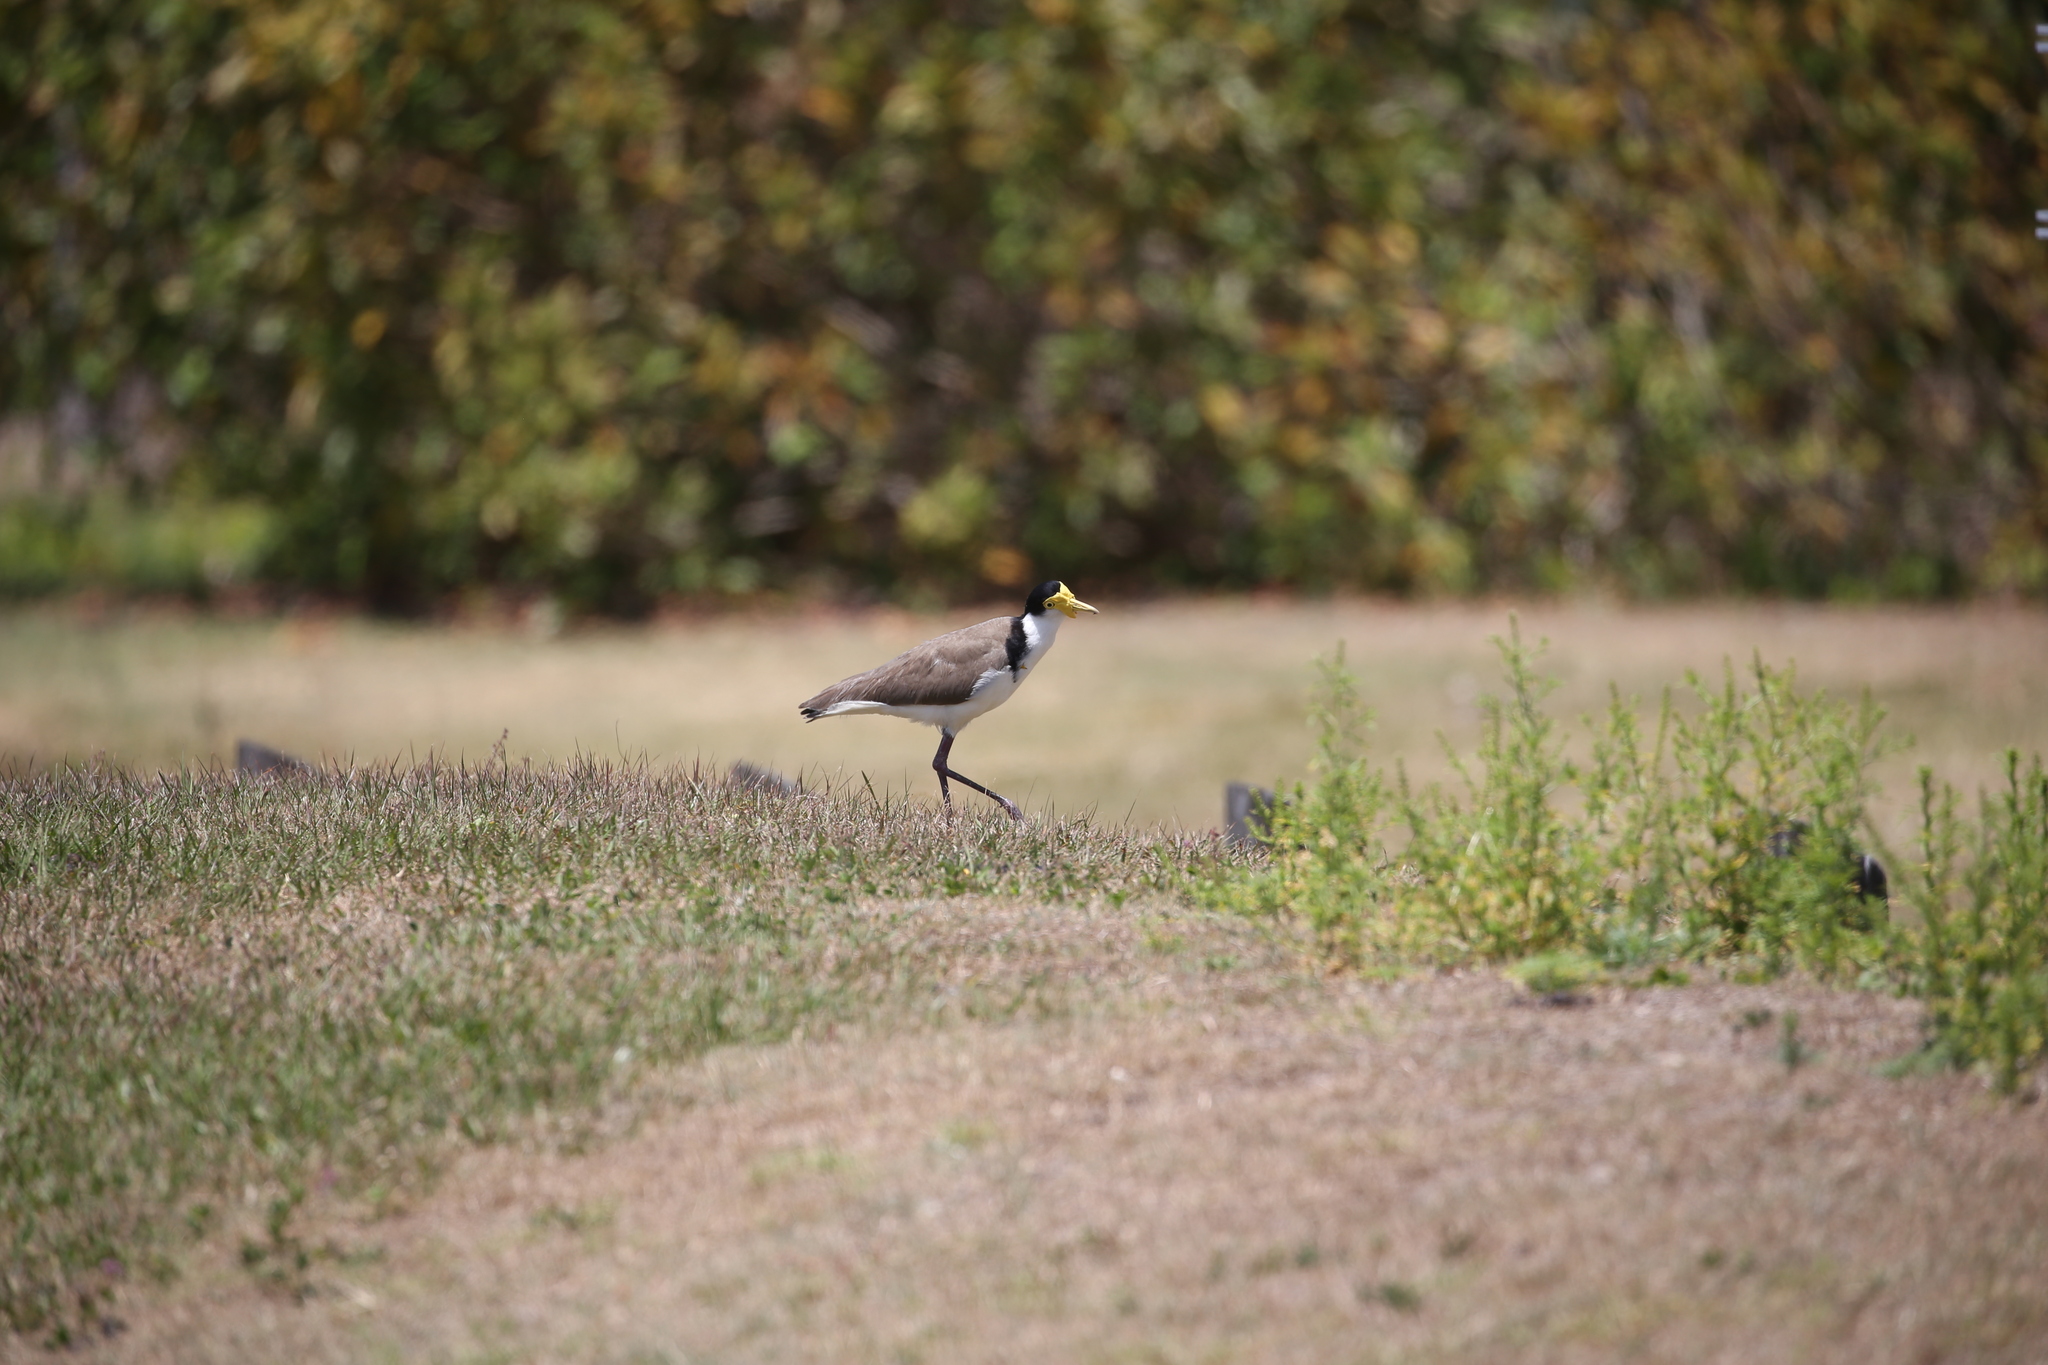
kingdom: Animalia
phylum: Chordata
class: Aves
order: Charadriiformes
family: Charadriidae
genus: Vanellus
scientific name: Vanellus miles
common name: Masked lapwing
